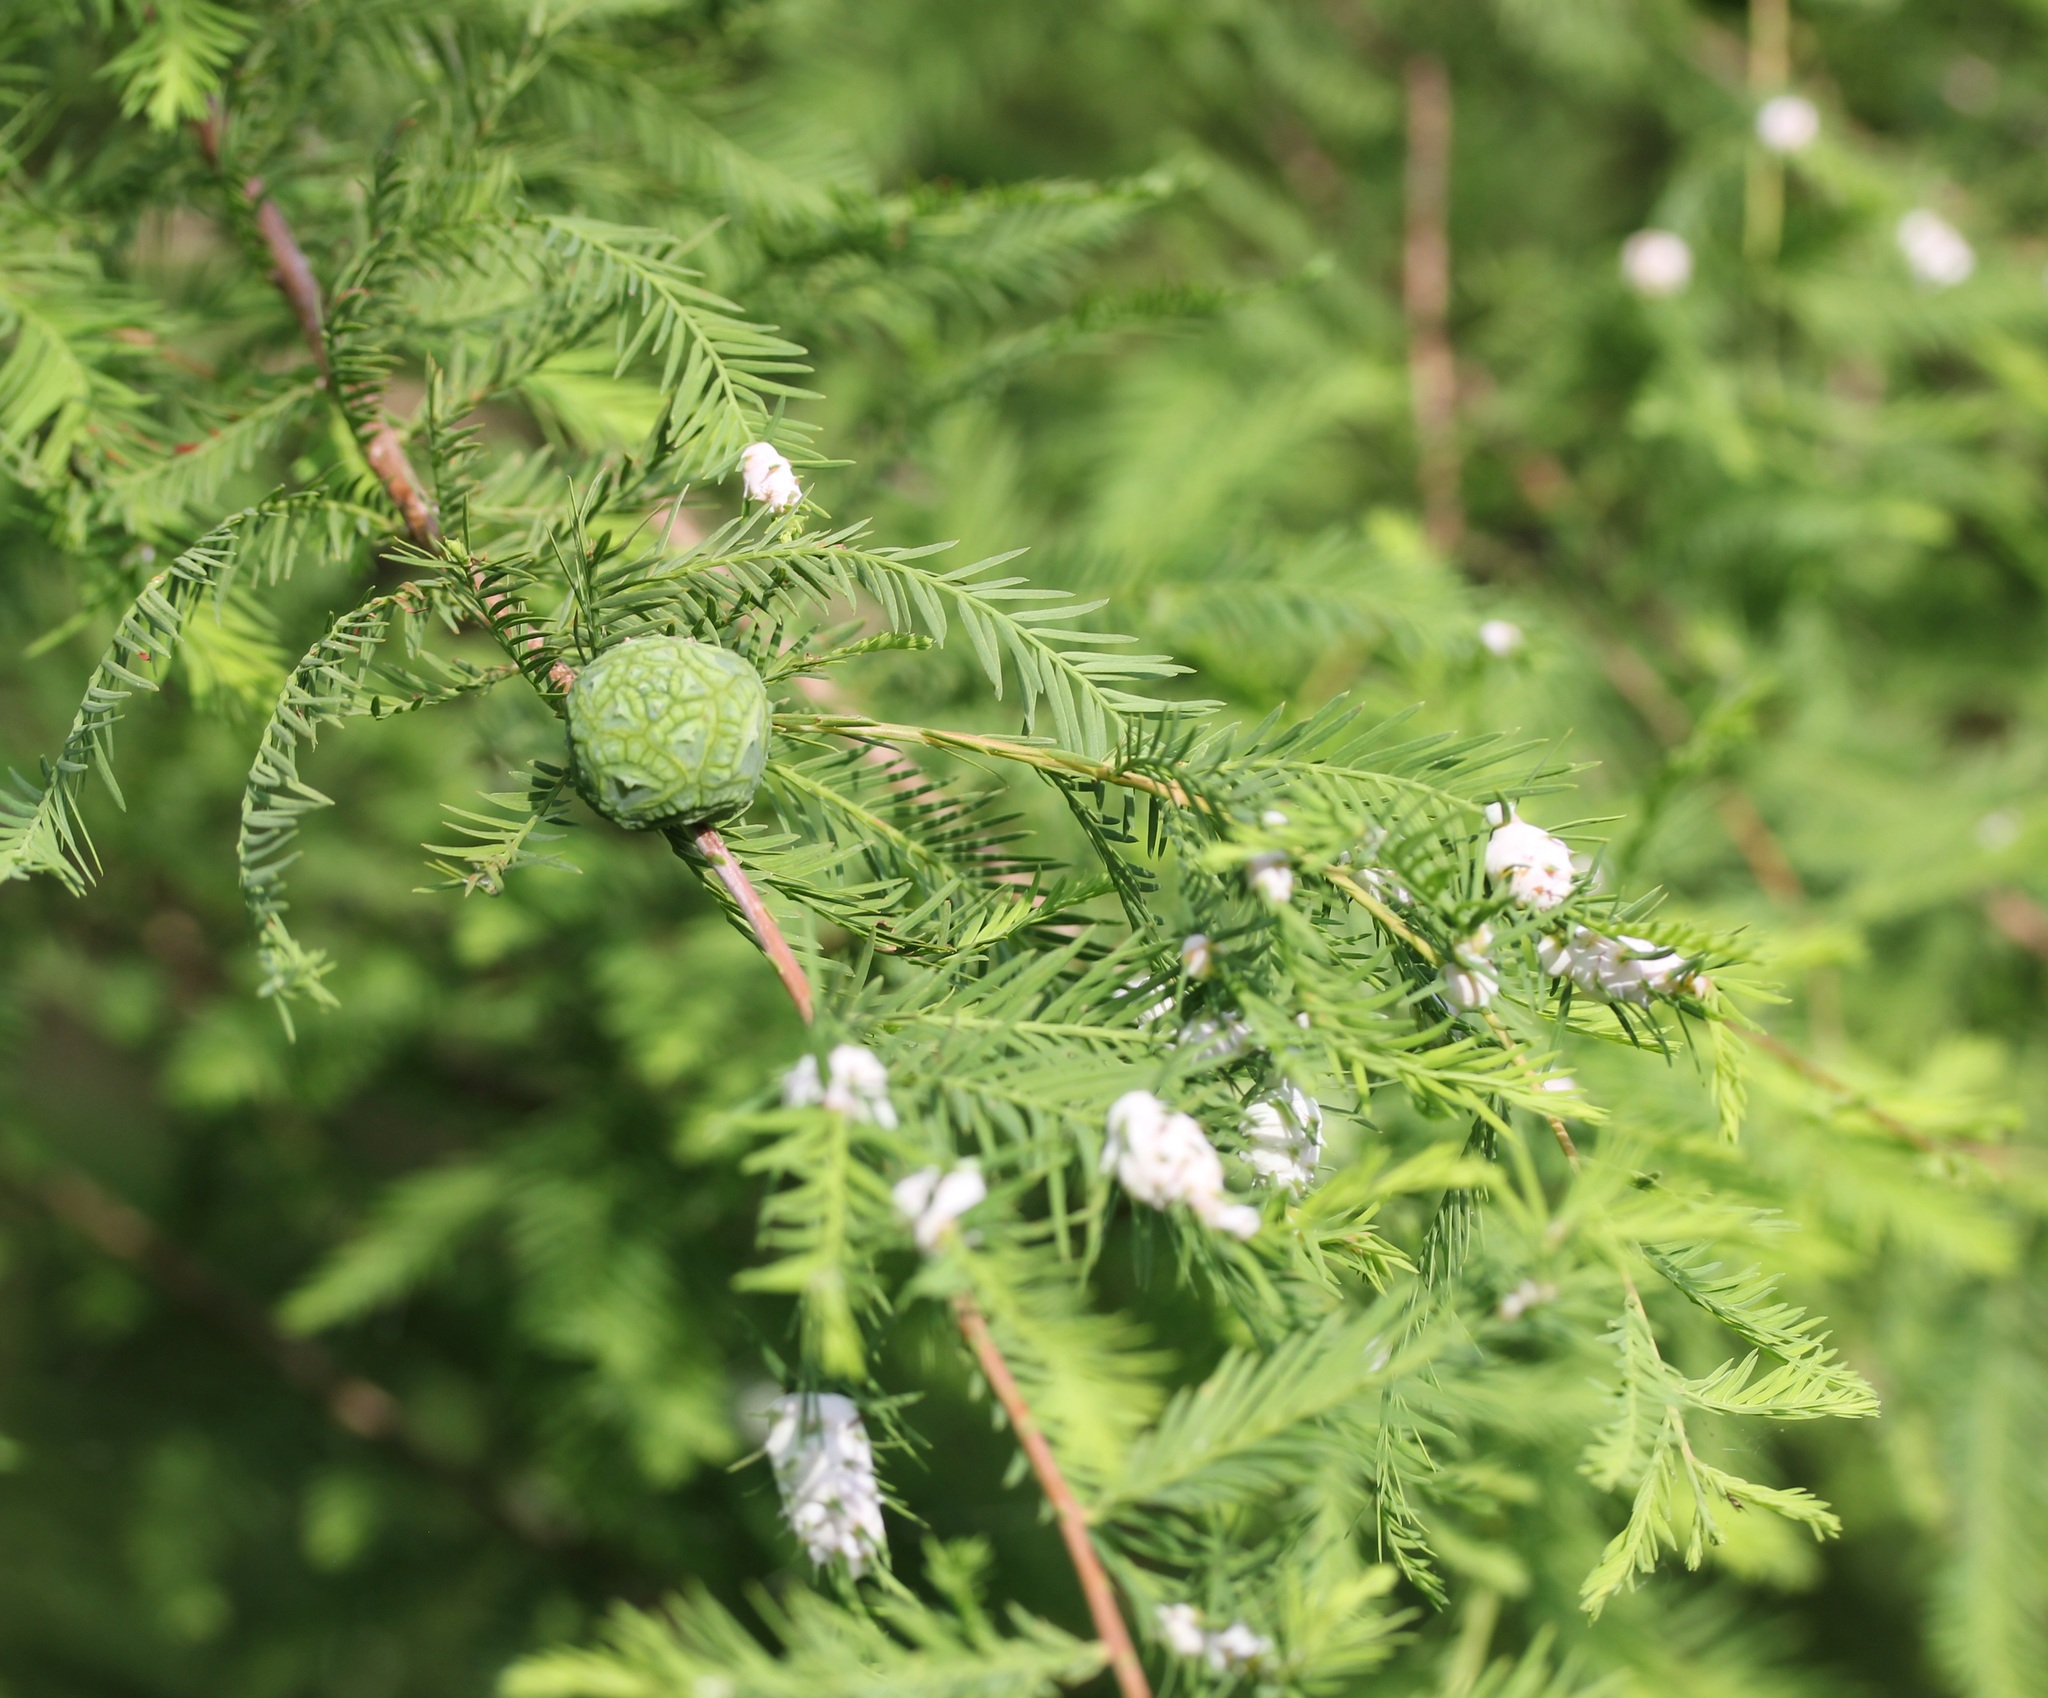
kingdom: Animalia
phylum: Arthropoda
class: Insecta
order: Diptera
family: Cecidomyiidae
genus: Taxodiomyia
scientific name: Taxodiomyia cupressiananassa
